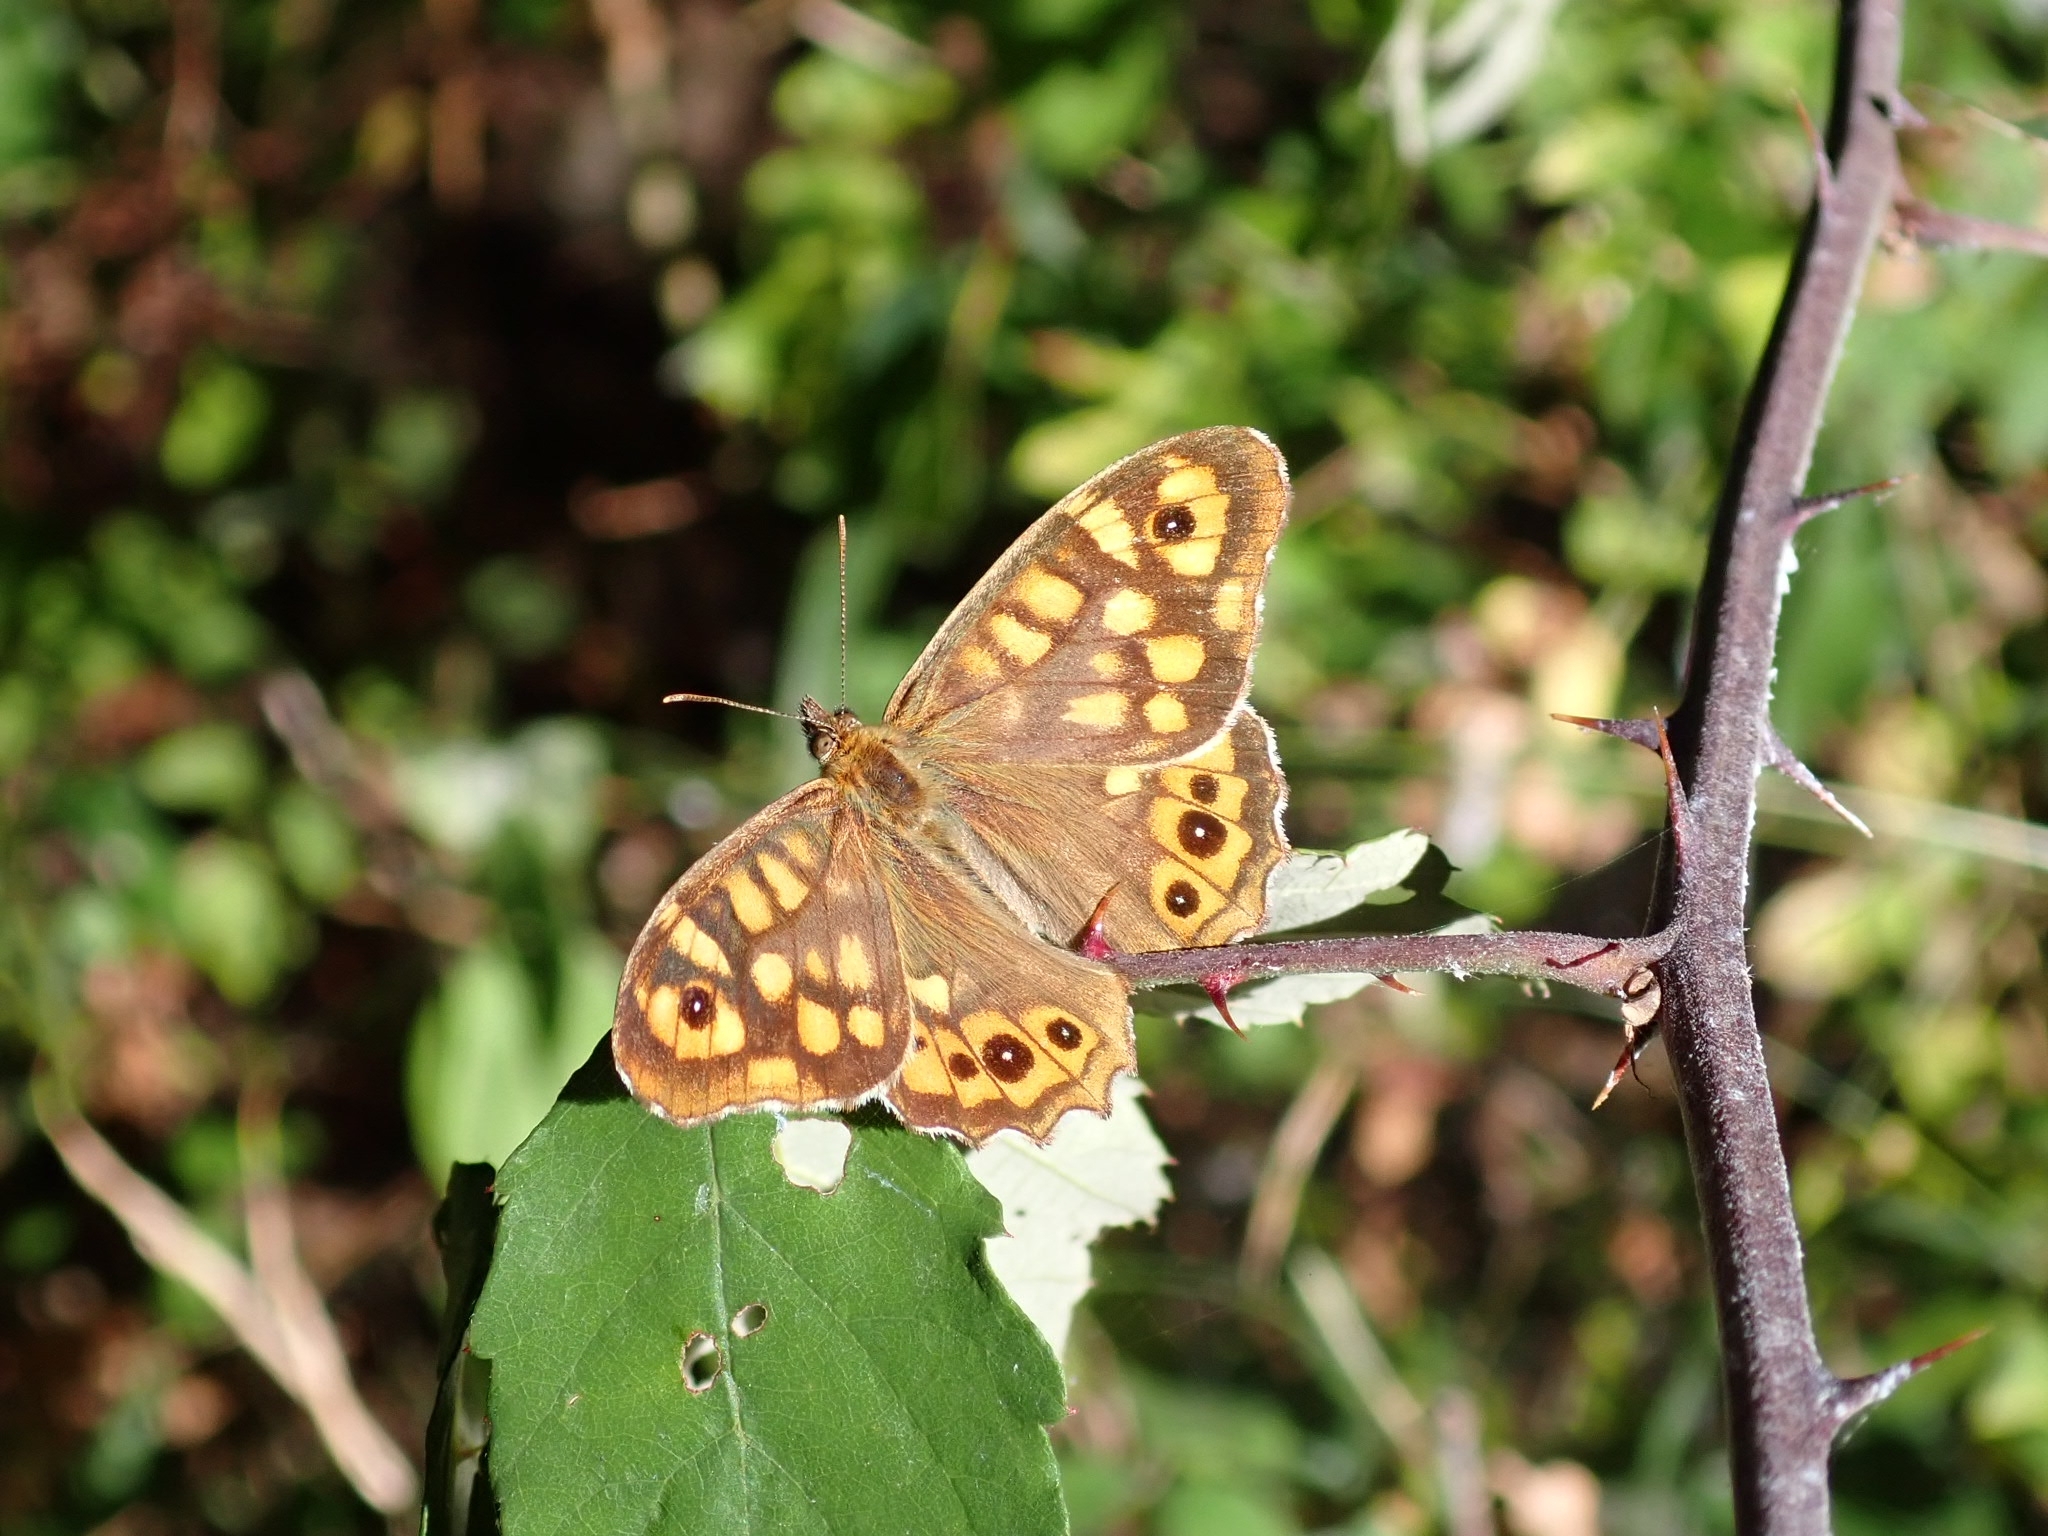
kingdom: Animalia
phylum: Arthropoda
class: Insecta
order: Lepidoptera
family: Nymphalidae
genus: Pararge
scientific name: Pararge aegeria
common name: Speckled wood
